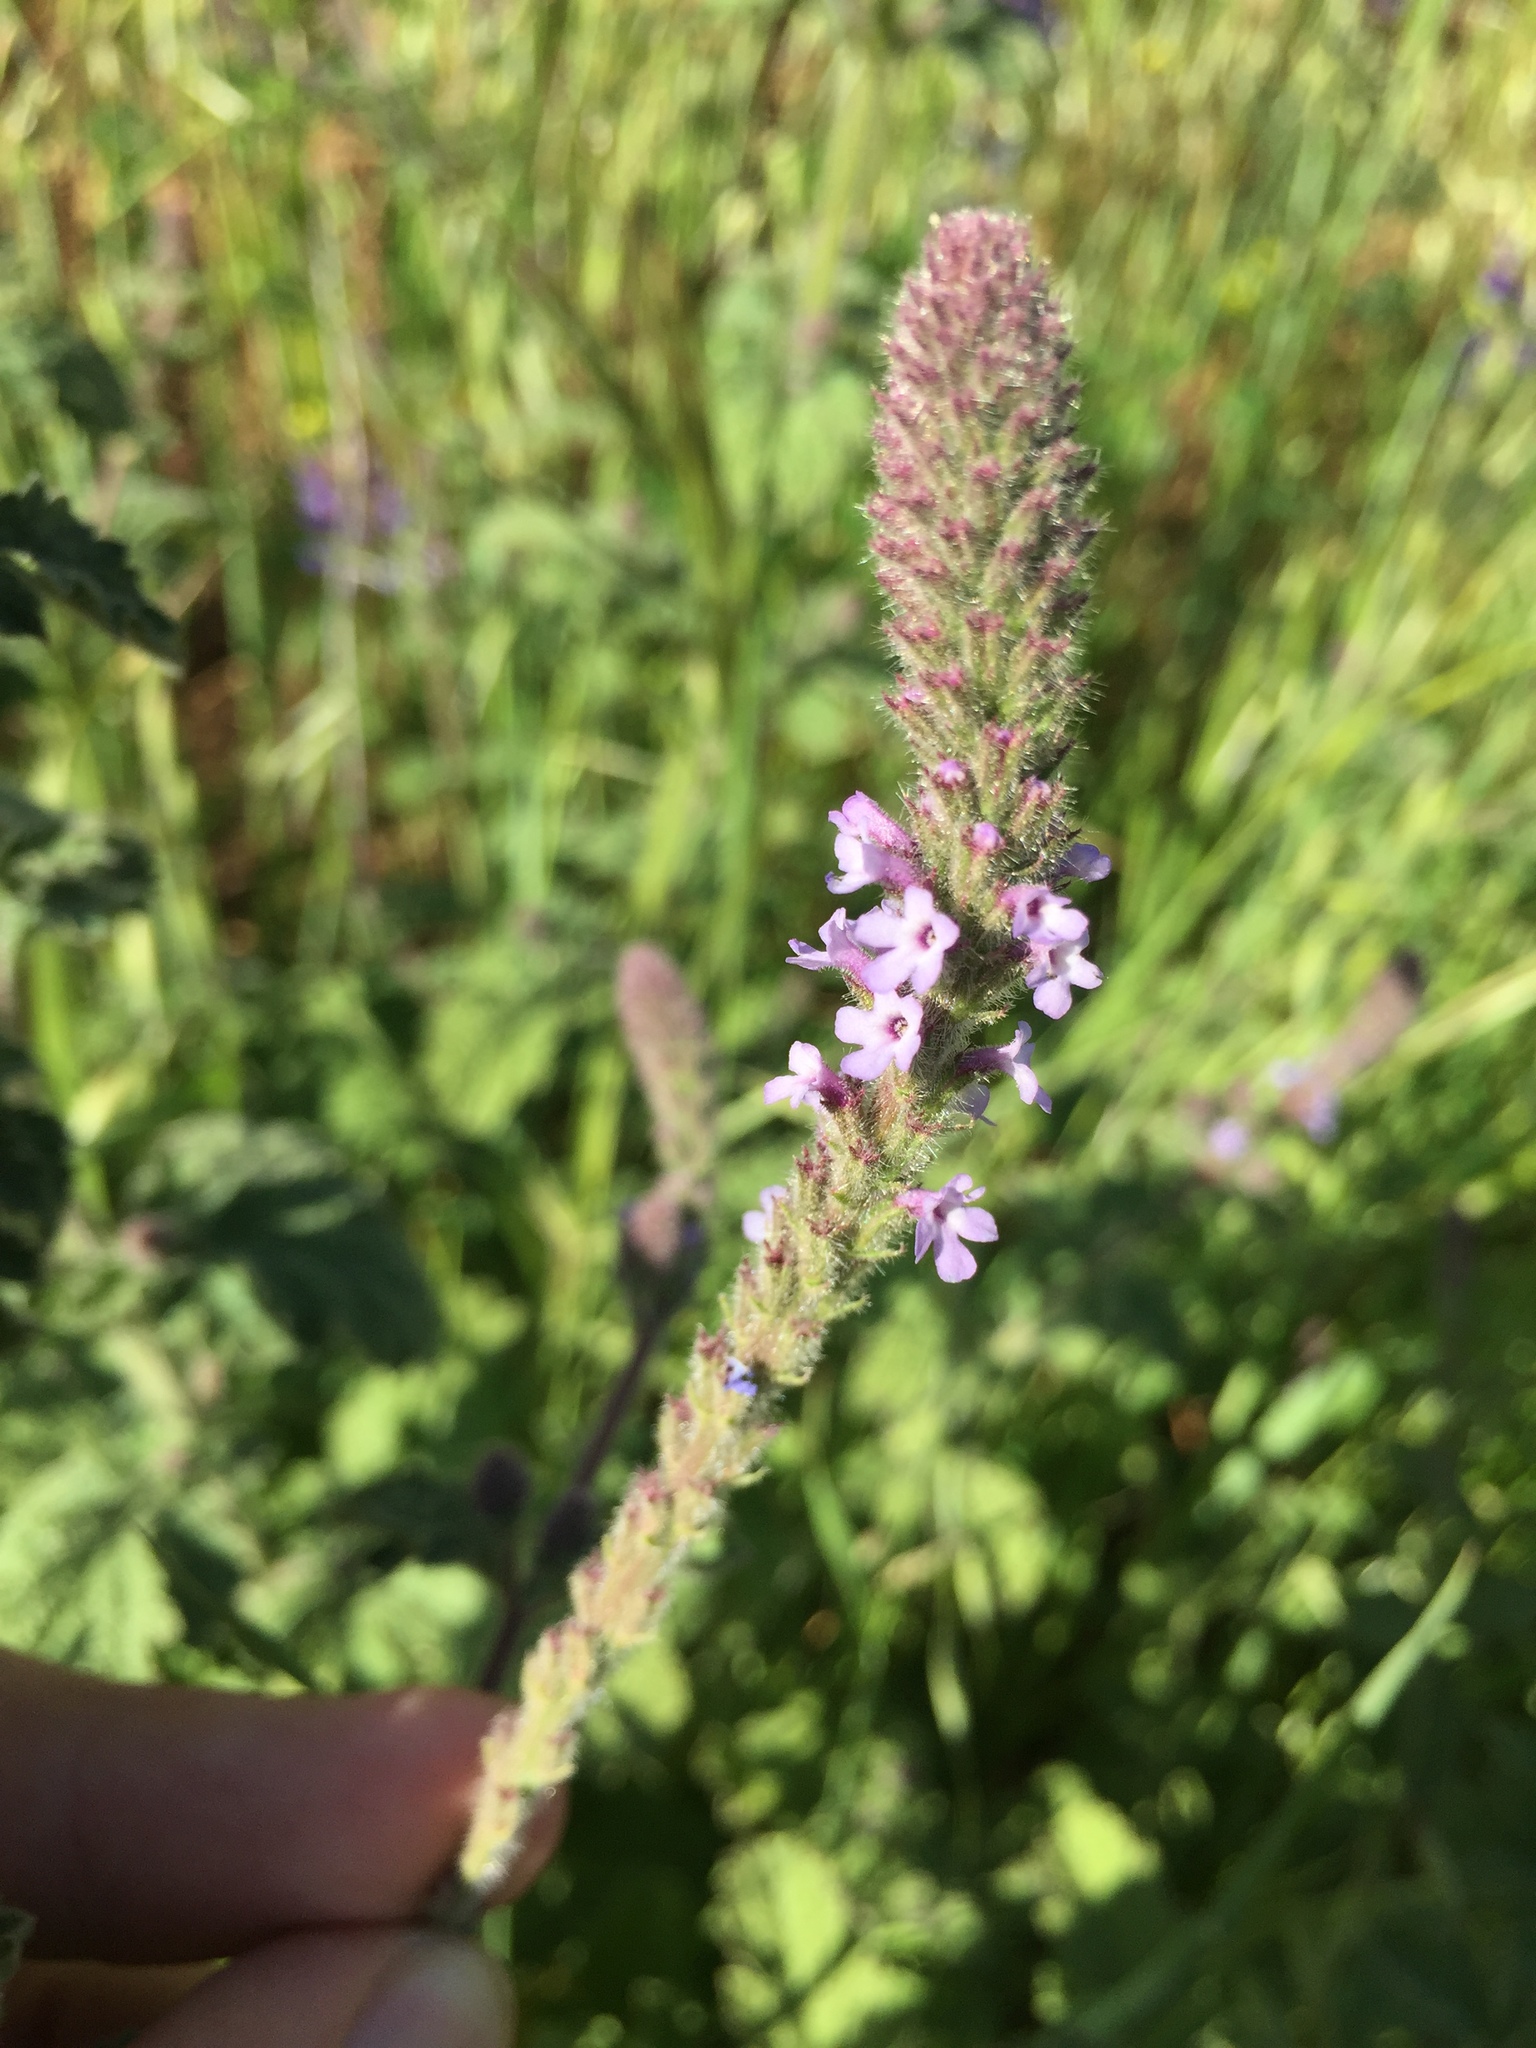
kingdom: Plantae
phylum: Tracheophyta
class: Magnoliopsida
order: Lamiales
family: Verbenaceae
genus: Verbena
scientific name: Verbena lasiostachys
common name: Vervain
